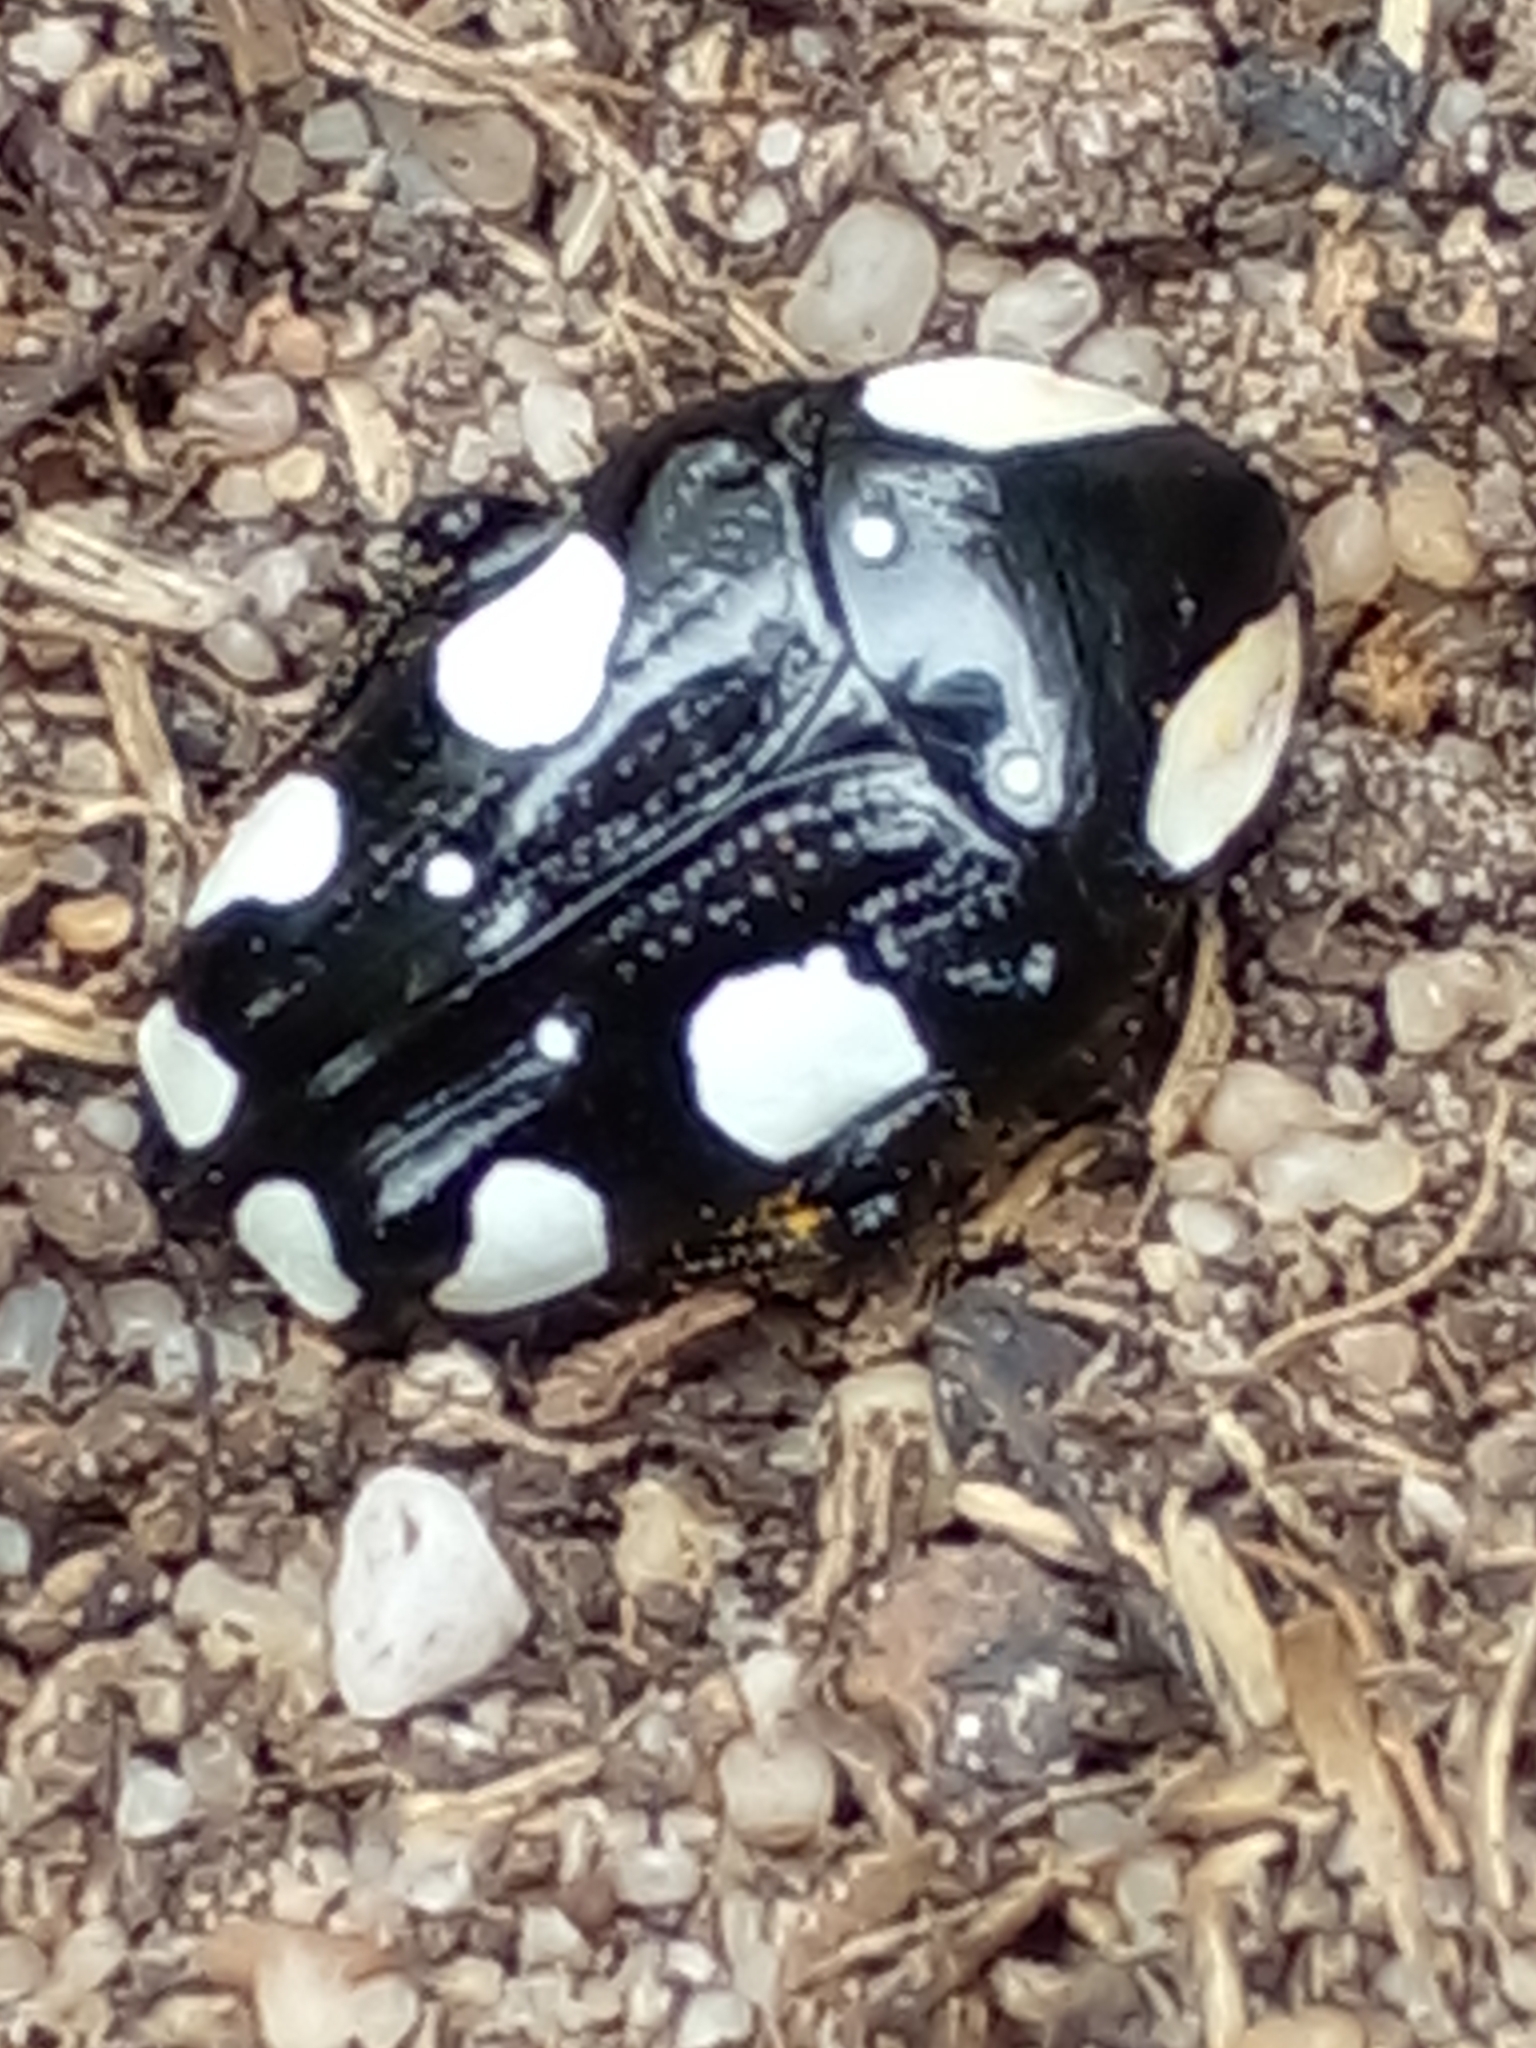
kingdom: Animalia
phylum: Arthropoda
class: Insecta
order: Coleoptera
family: Scarabaeidae
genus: Mausoleopsis
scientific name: Mausoleopsis amabilis
